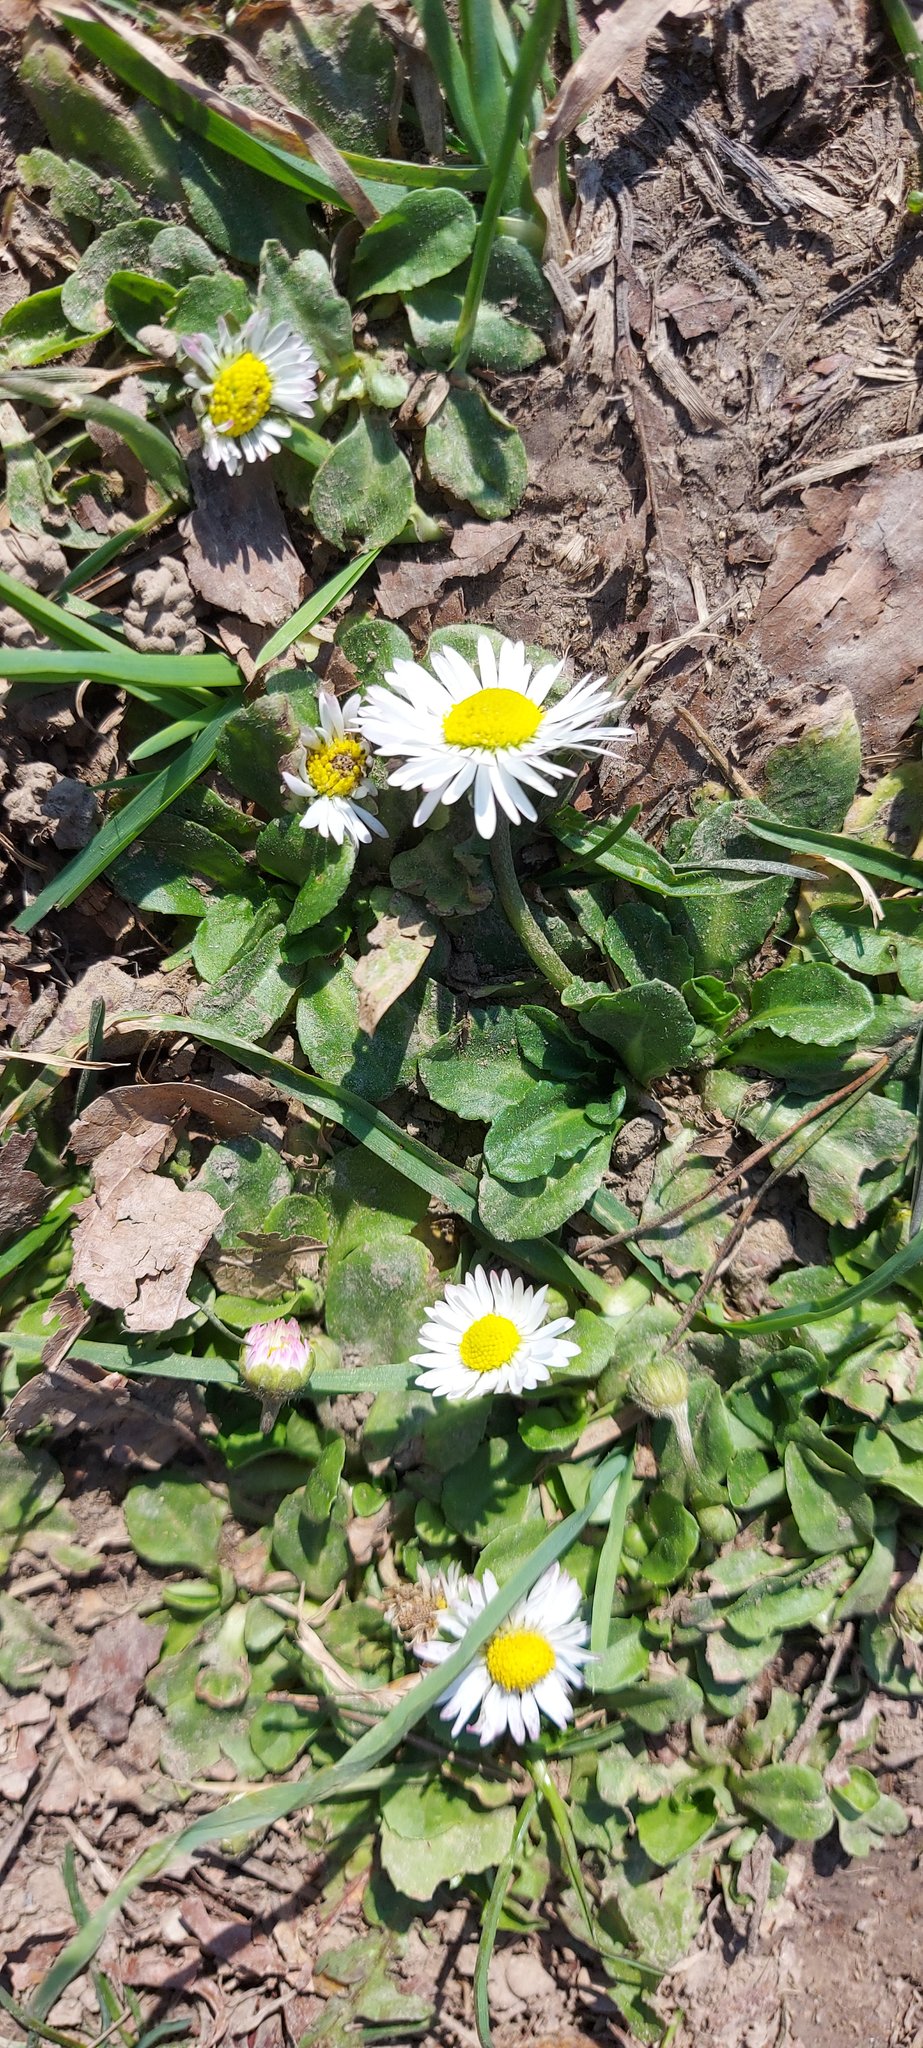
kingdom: Plantae
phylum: Tracheophyta
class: Magnoliopsida
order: Asterales
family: Asteraceae
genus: Bellis
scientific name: Bellis perennis
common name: Lawndaisy
